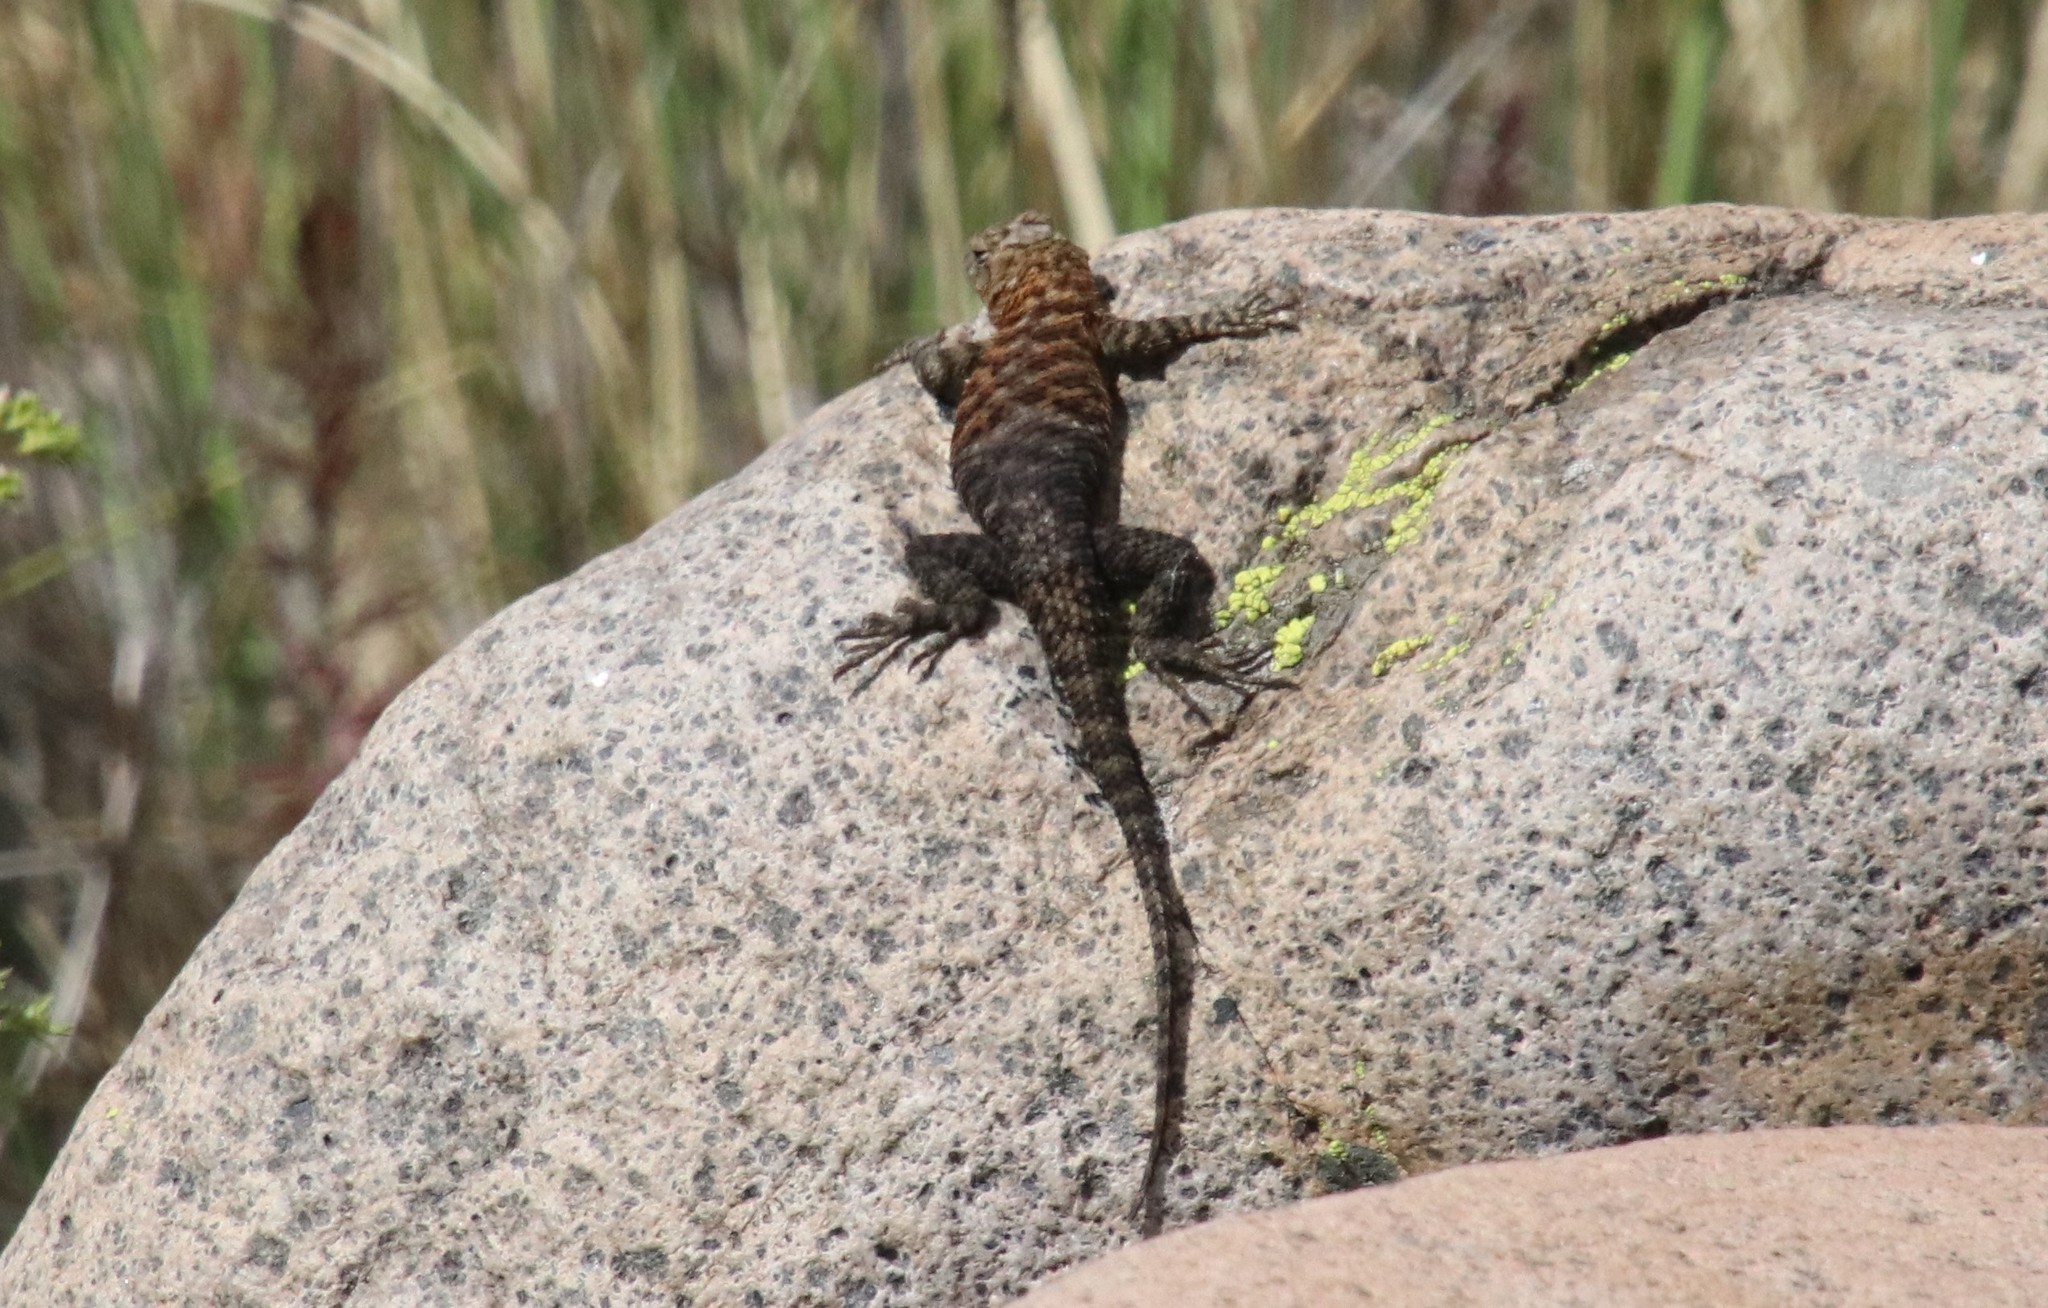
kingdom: Animalia
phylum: Chordata
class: Squamata
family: Phrynosomatidae
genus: Sceloporus
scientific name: Sceloporus orcutti
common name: Granite spiny lizard
